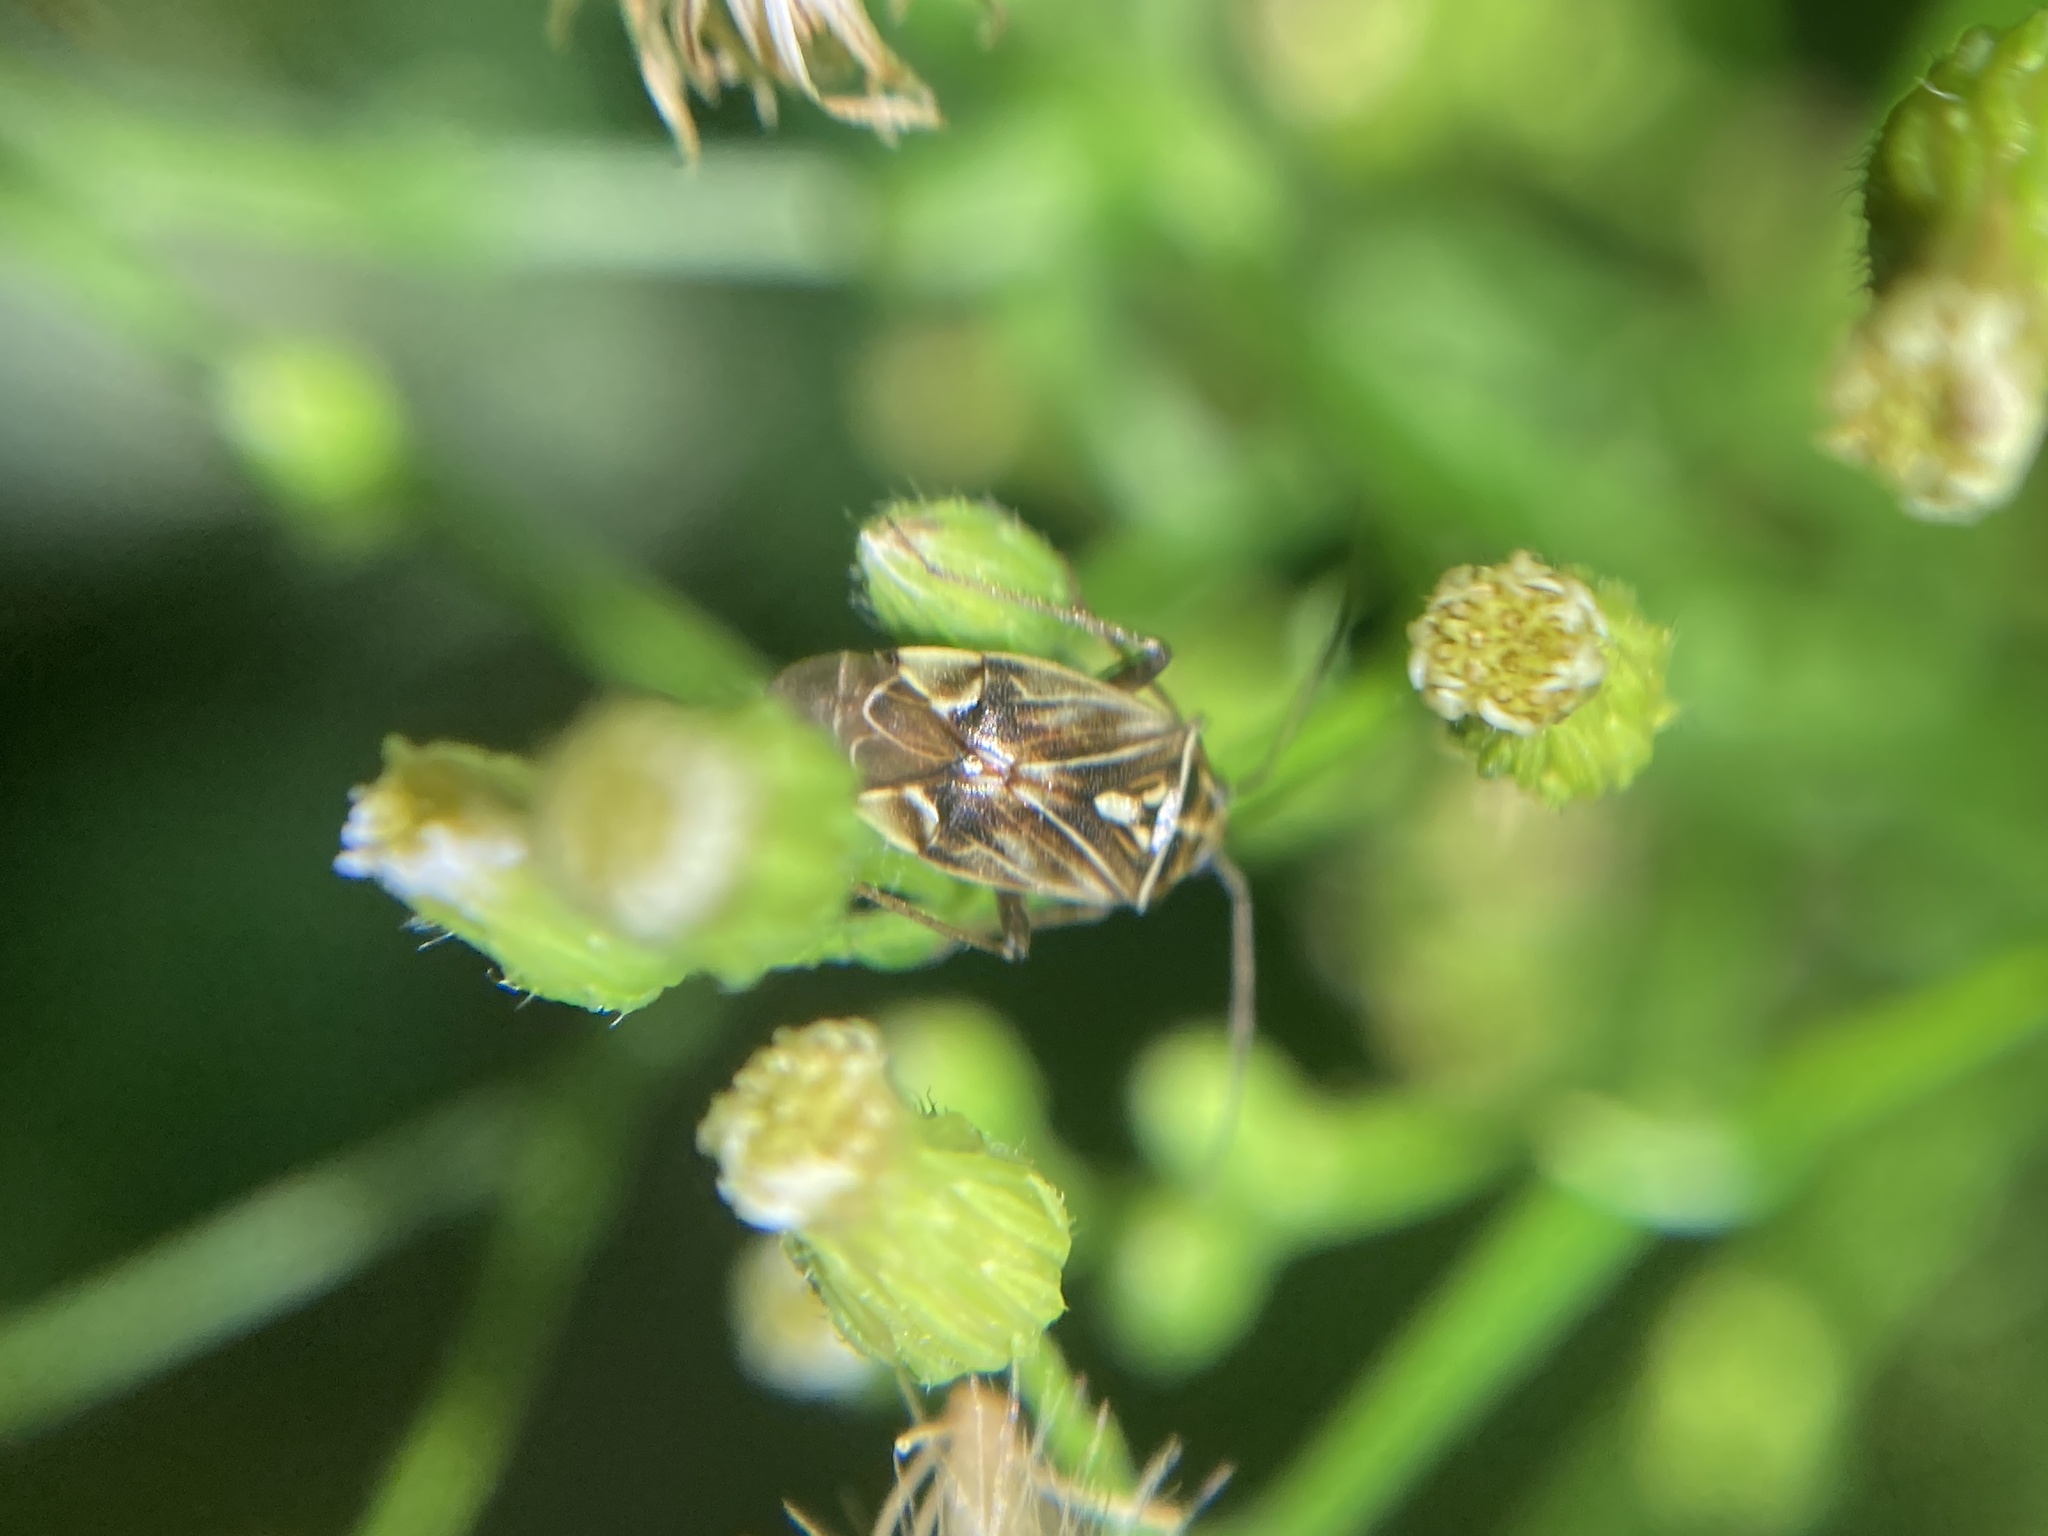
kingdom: Animalia
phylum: Arthropoda
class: Insecta
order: Hemiptera
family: Miridae
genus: Lygus
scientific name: Lygus lineolaris
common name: North american tarnished plant bug
